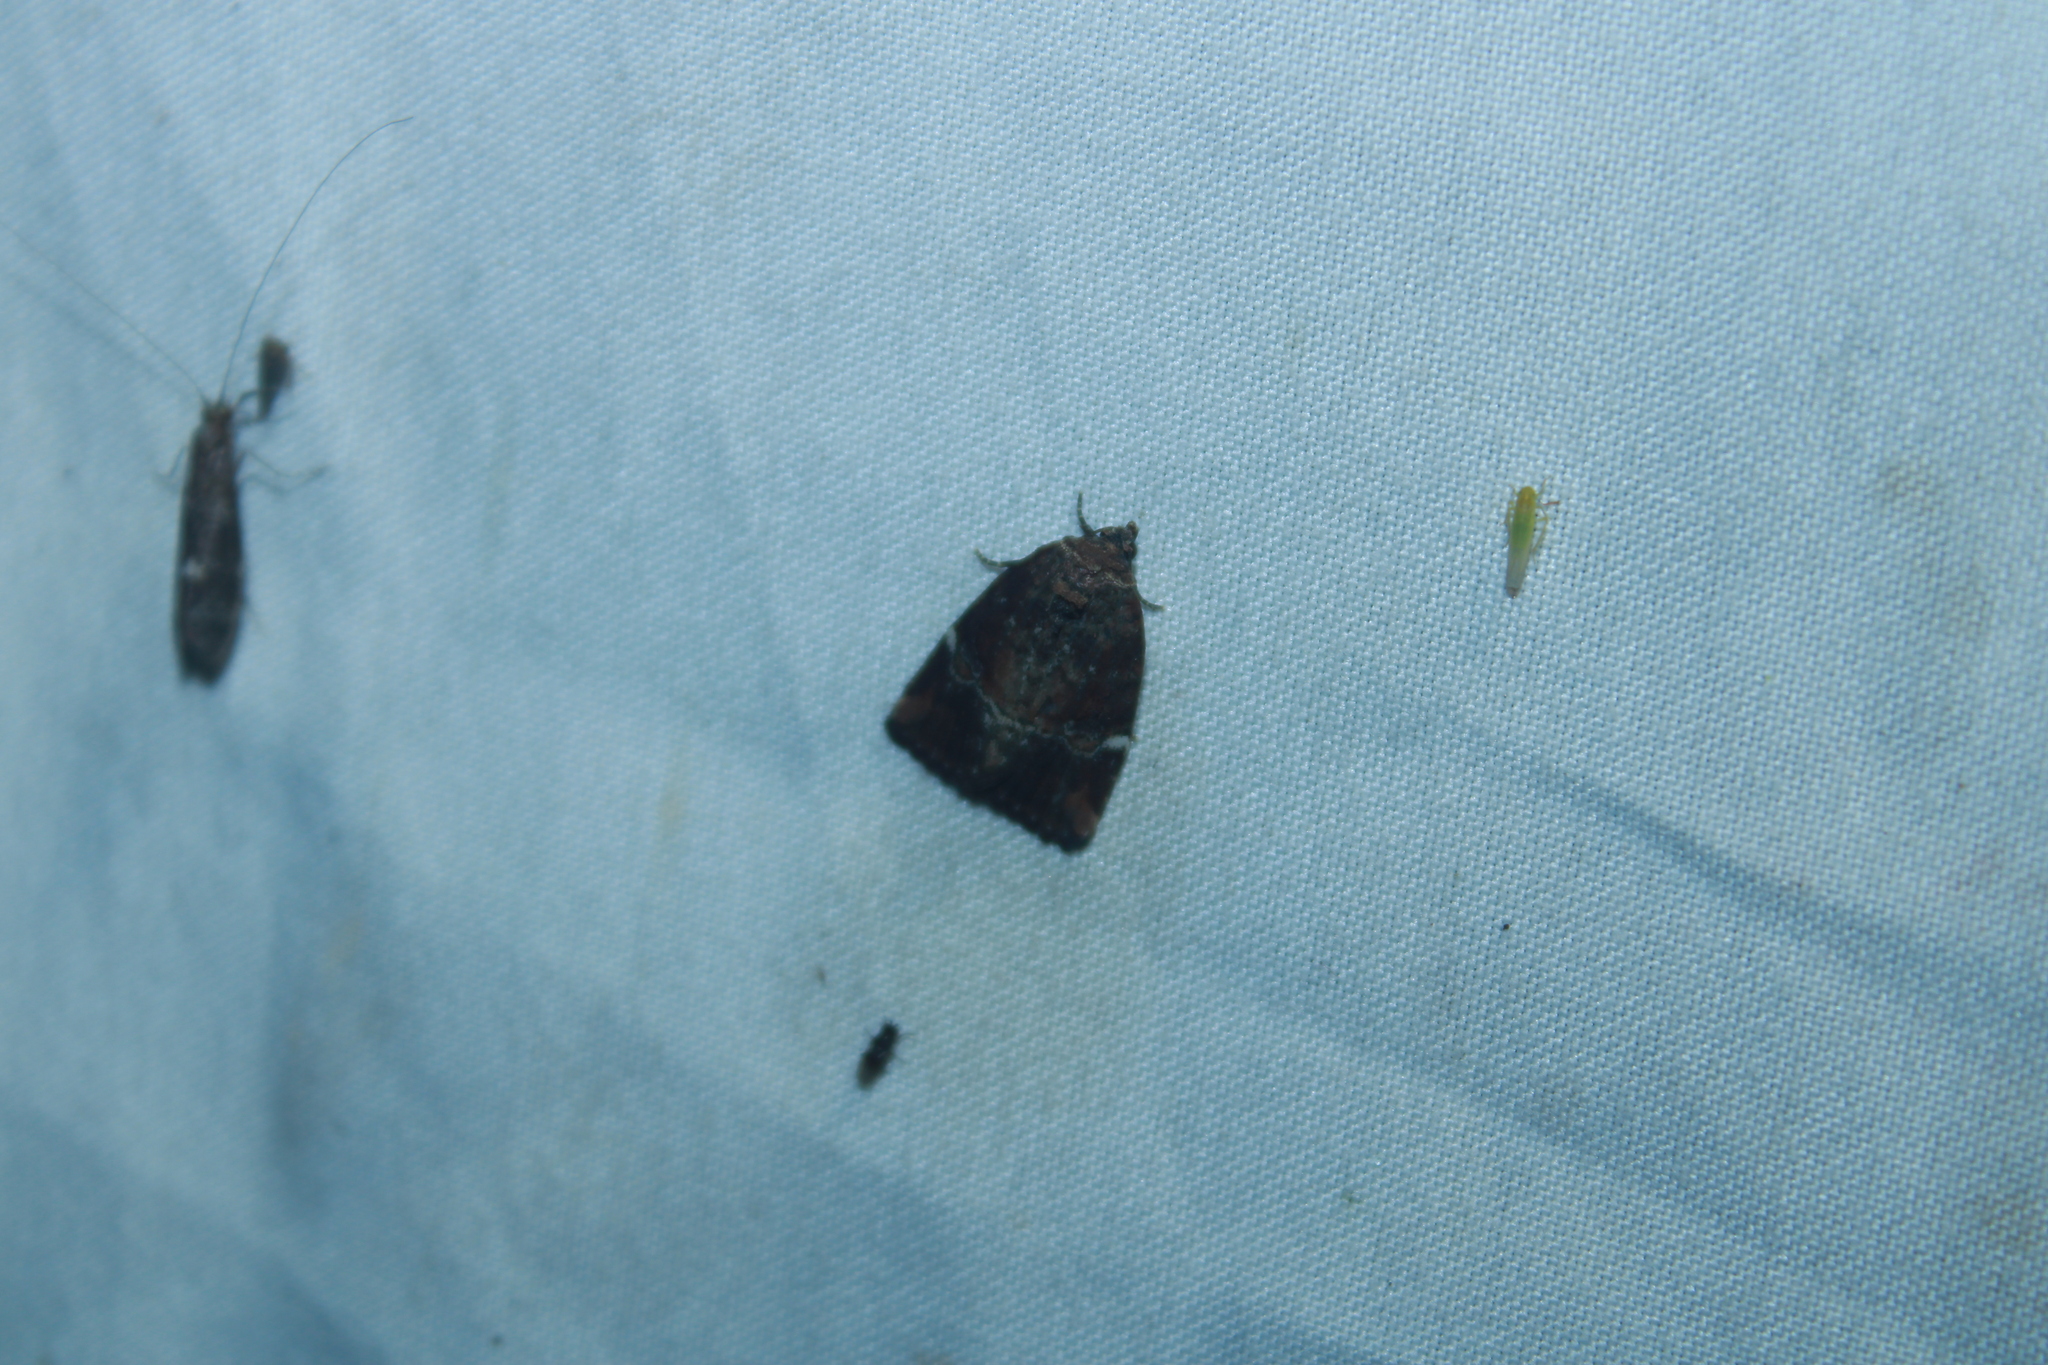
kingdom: Animalia
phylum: Arthropoda
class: Insecta
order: Lepidoptera
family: Noctuidae
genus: Elaphria
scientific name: Elaphria versicolor
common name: Fir harlequin
